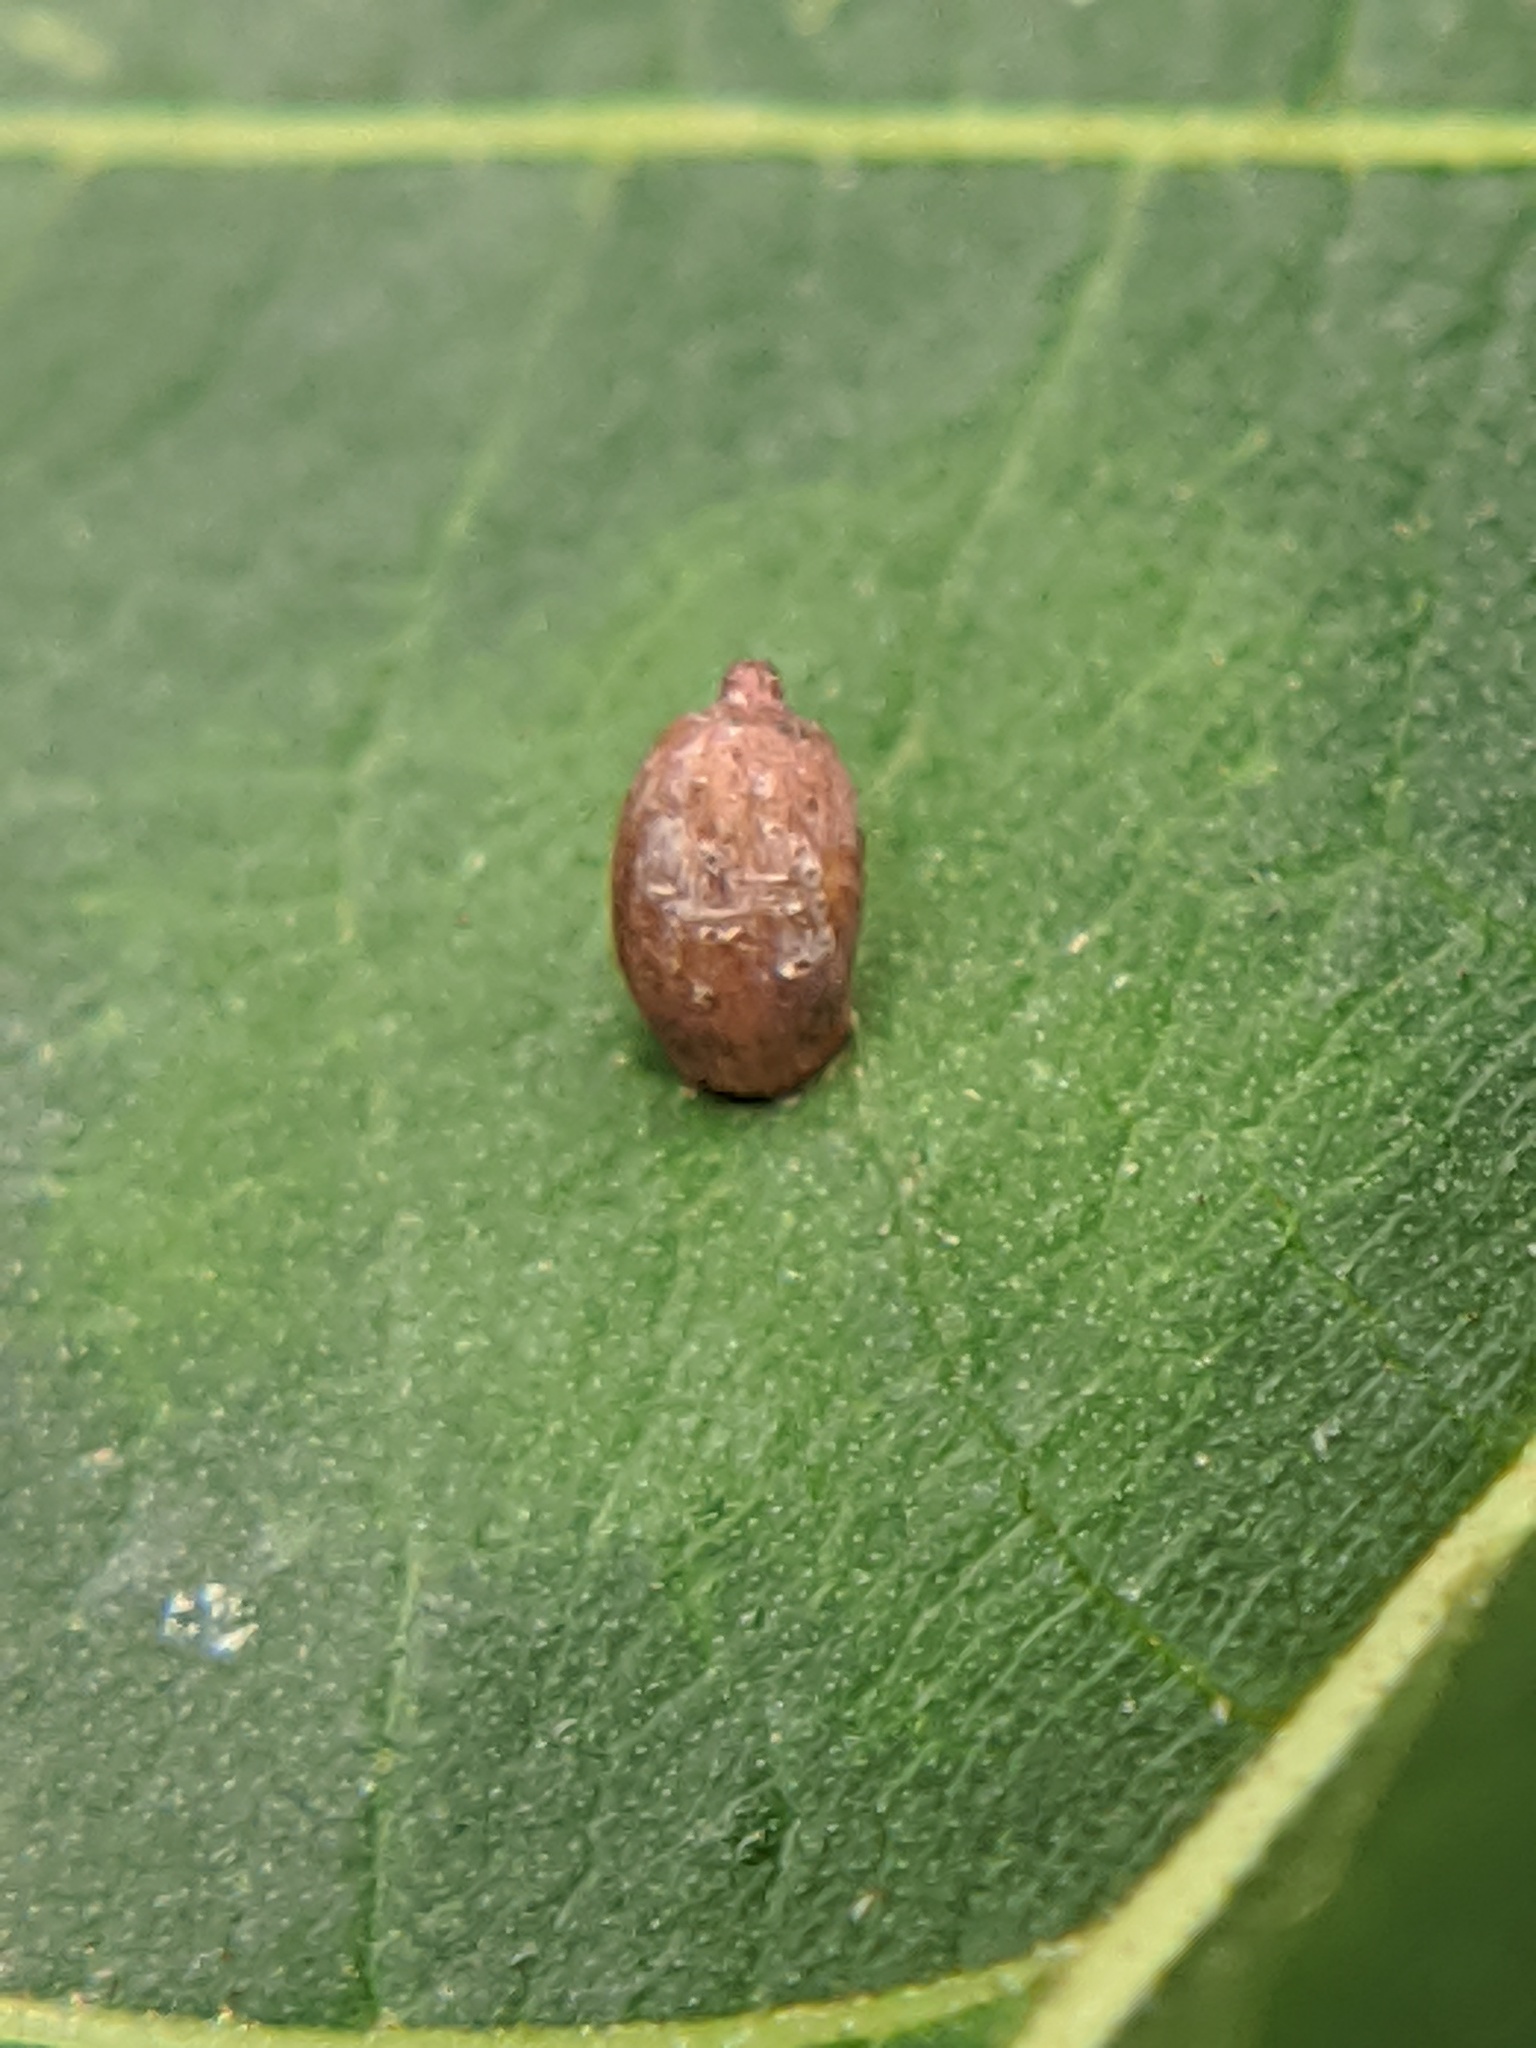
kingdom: Animalia
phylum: Arthropoda
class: Insecta
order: Diptera
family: Cecidomyiidae
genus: Caryomyia
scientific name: Caryomyia urnula
